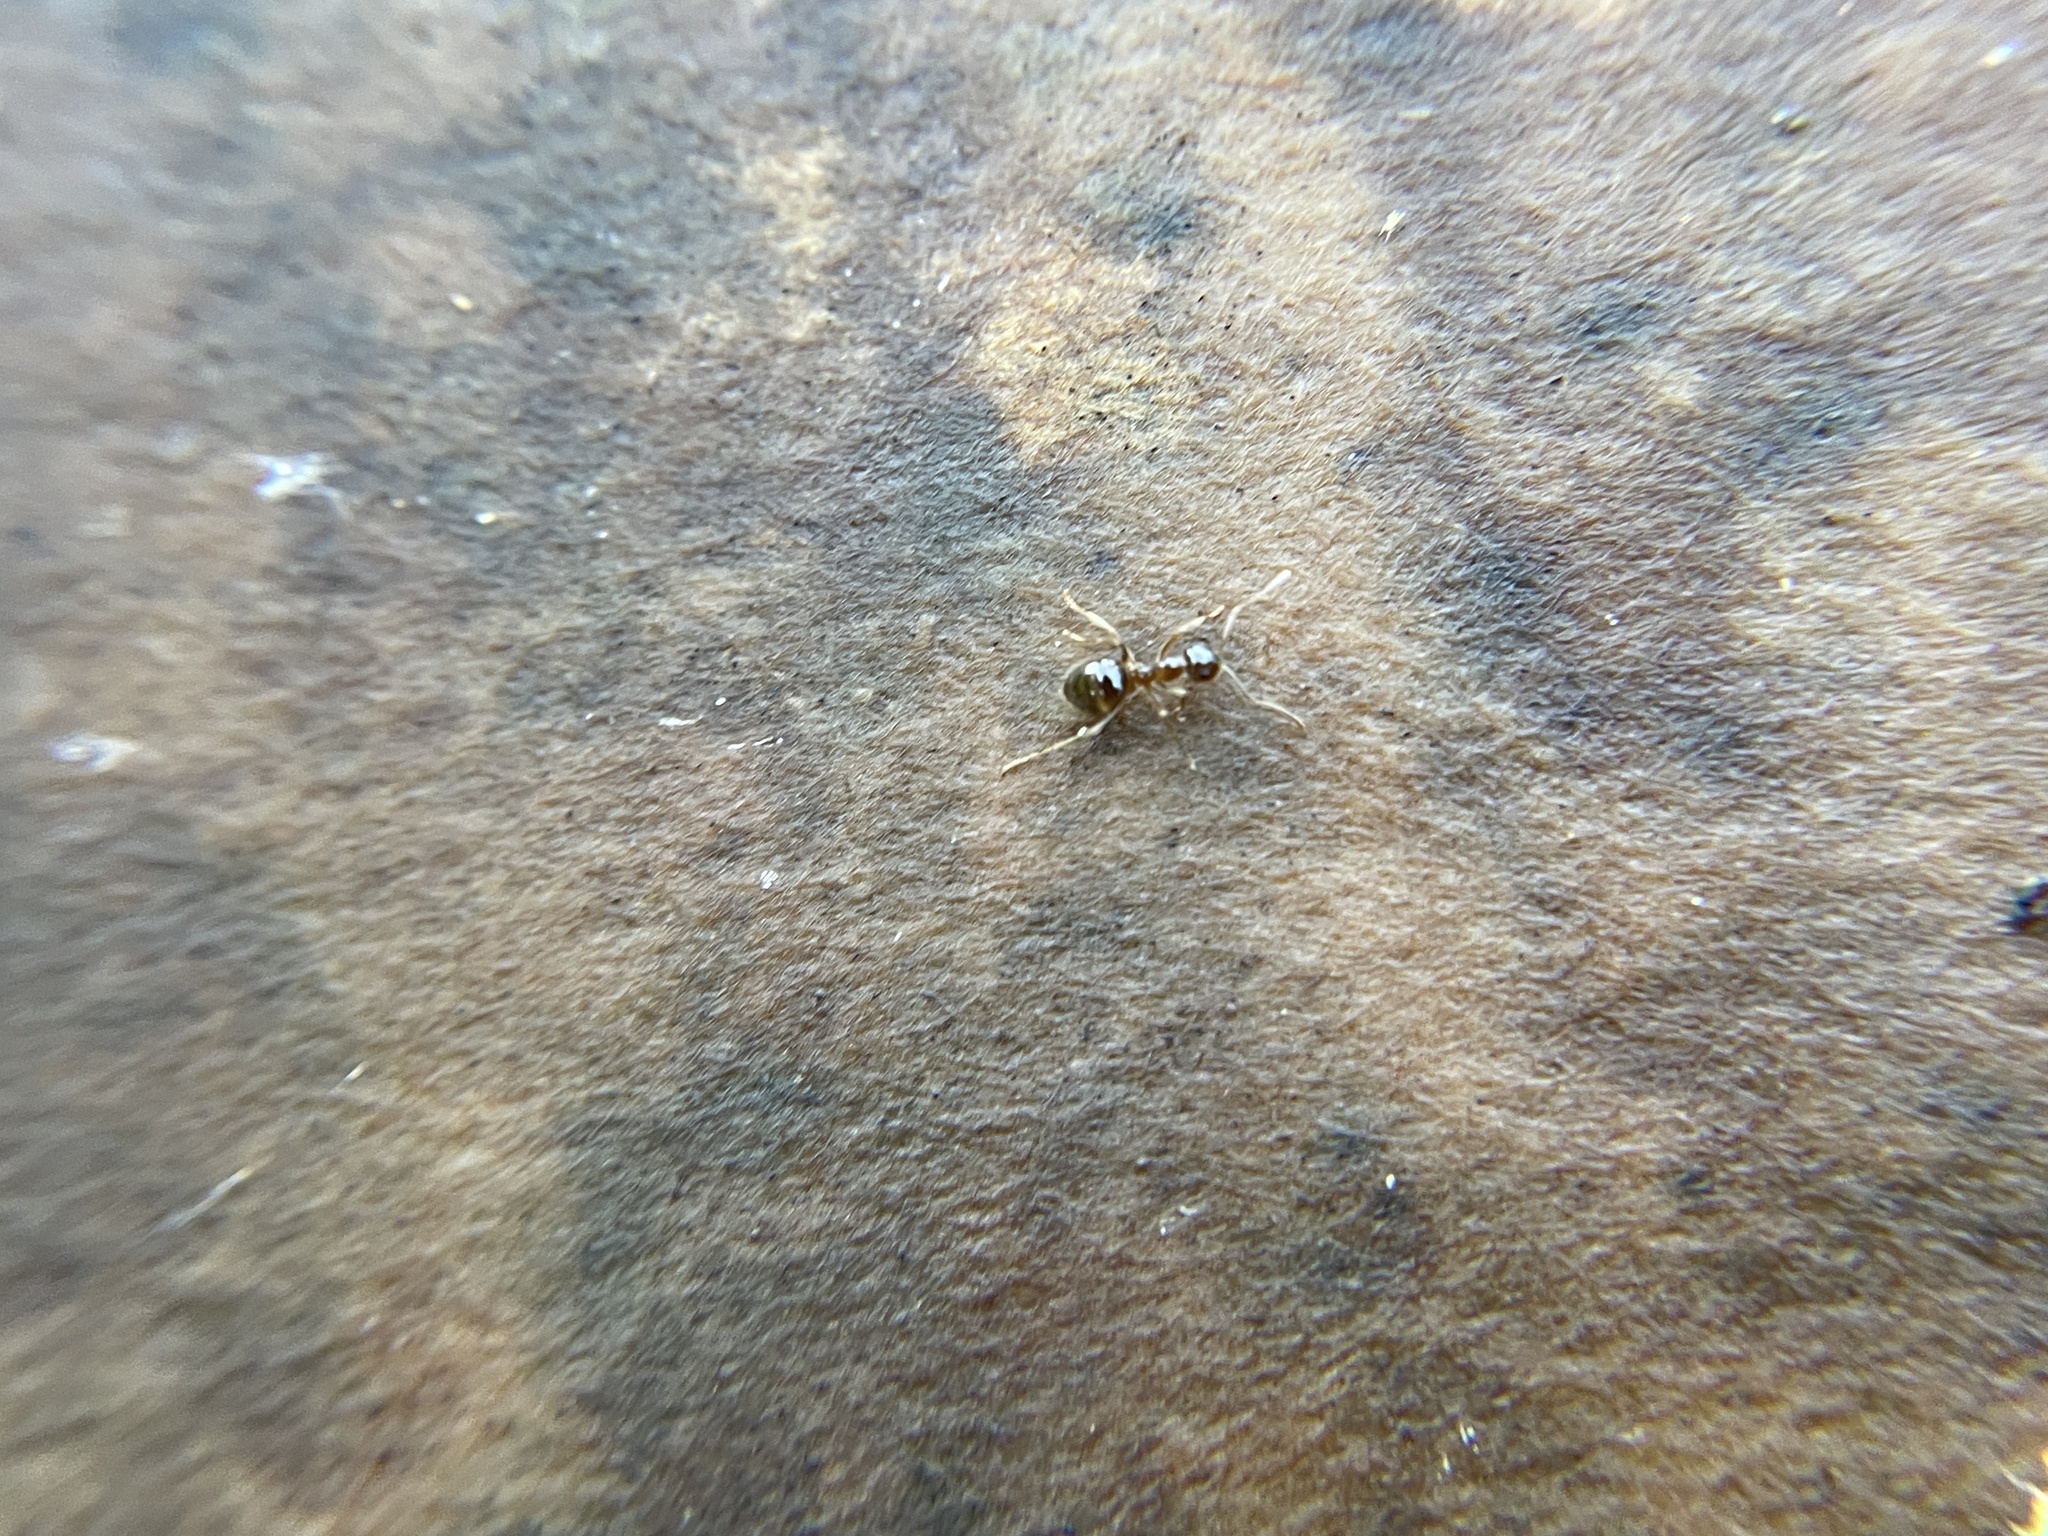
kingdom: Animalia
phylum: Arthropoda
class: Insecta
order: Hymenoptera
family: Formicidae
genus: Prenolepis
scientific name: Prenolepis imparis
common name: Small honey ant
